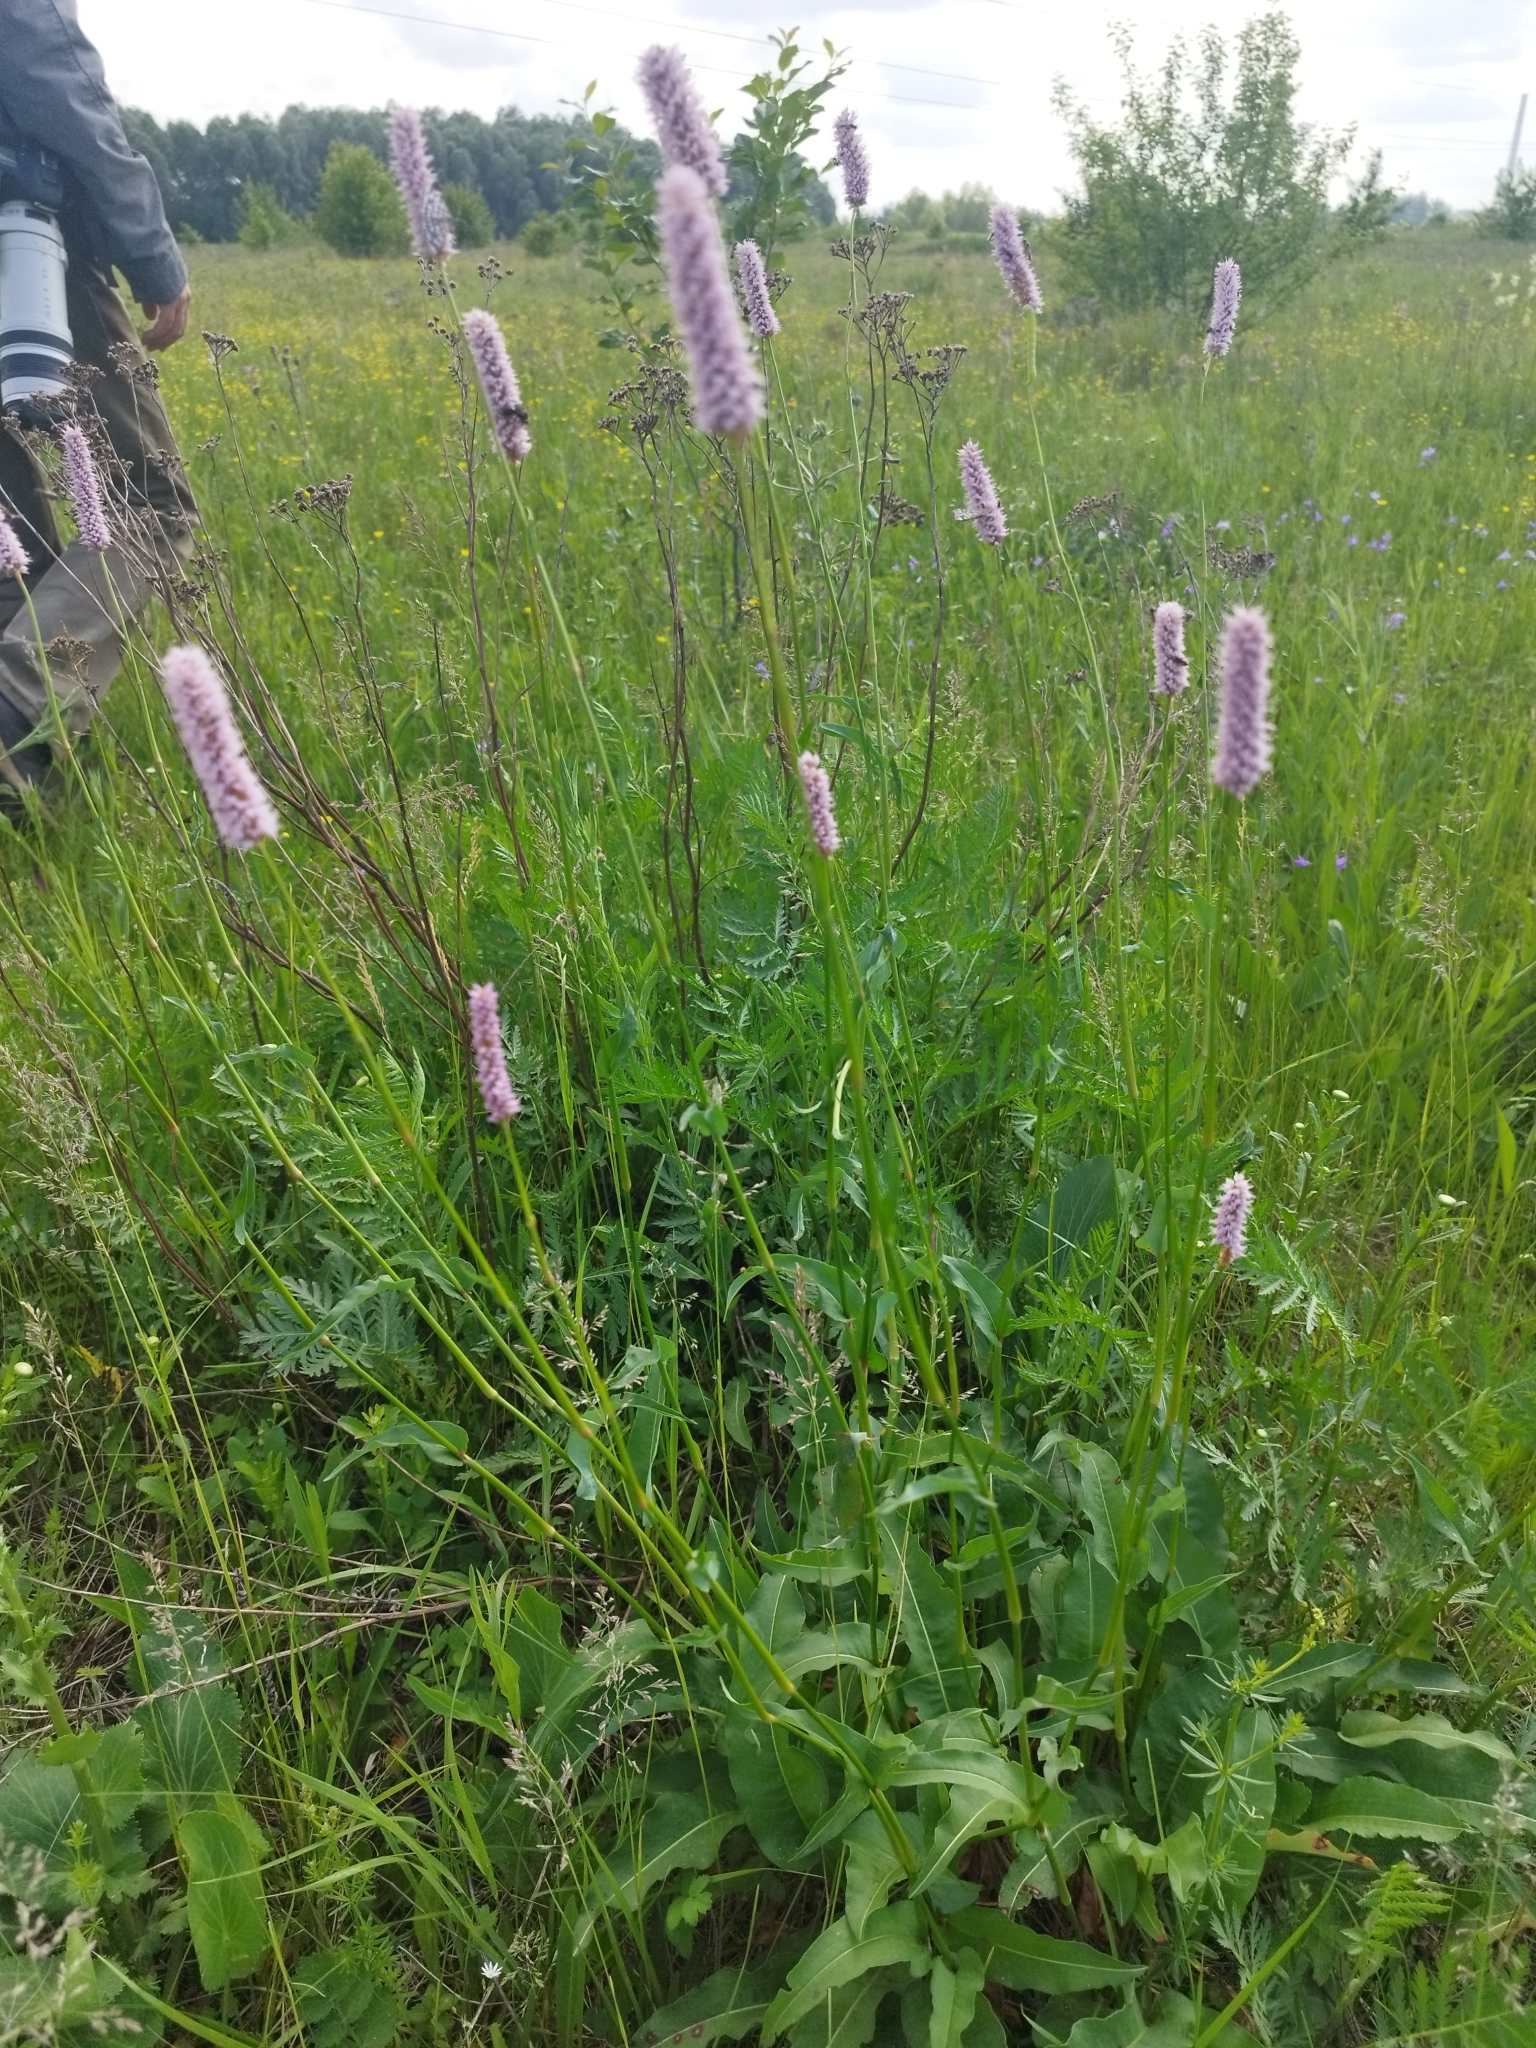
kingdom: Plantae
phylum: Tracheophyta
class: Magnoliopsida
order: Caryophyllales
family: Polygonaceae
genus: Bistorta
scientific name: Bistorta officinalis
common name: Common bistort
